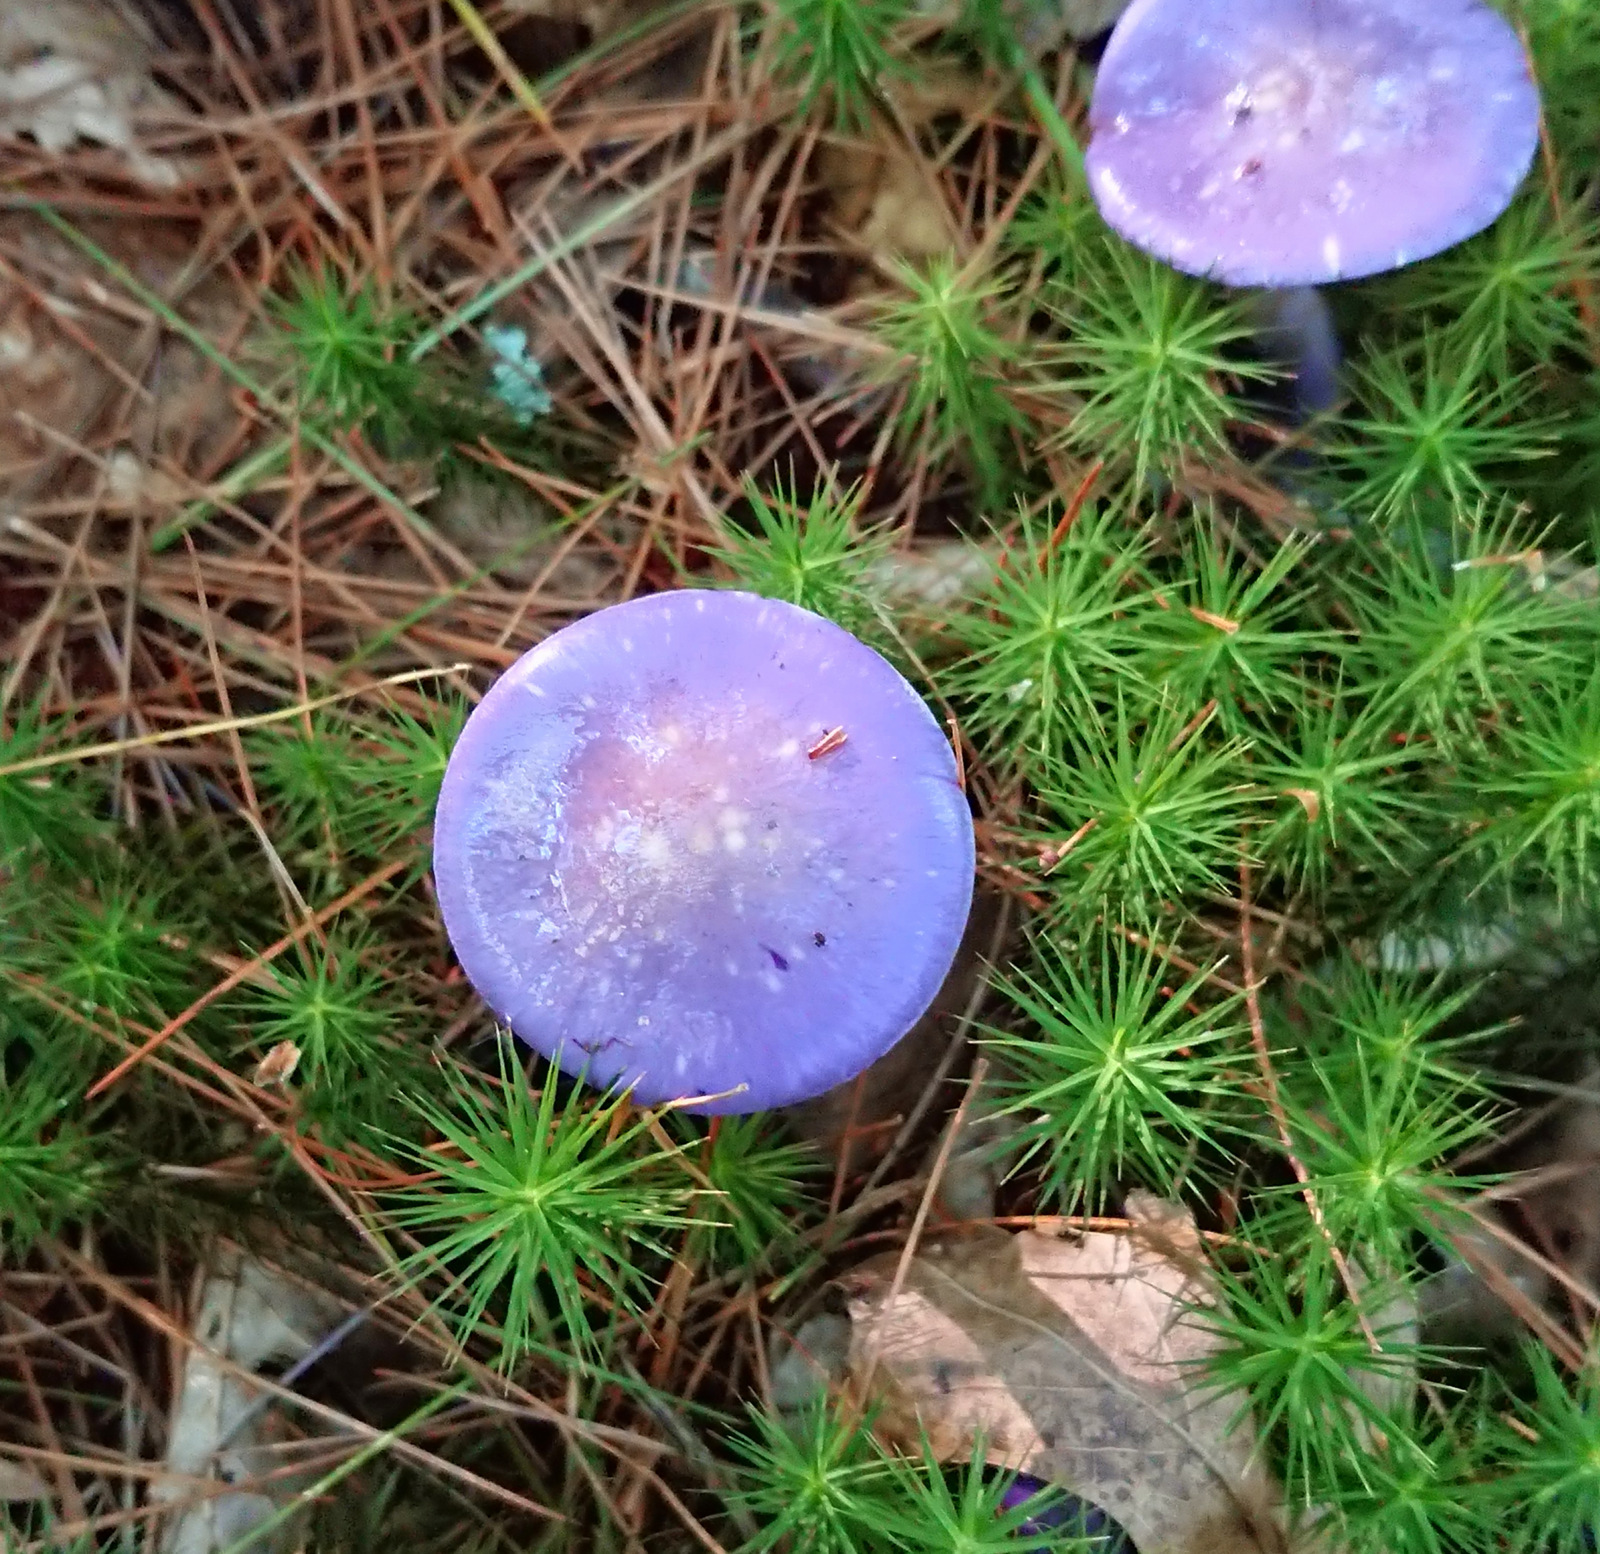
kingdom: Fungi
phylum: Basidiomycota
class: Agaricomycetes
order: Agaricales
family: Cortinariaceae
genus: Cortinarius
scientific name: Cortinarius iodes
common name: Viscid violet cort
